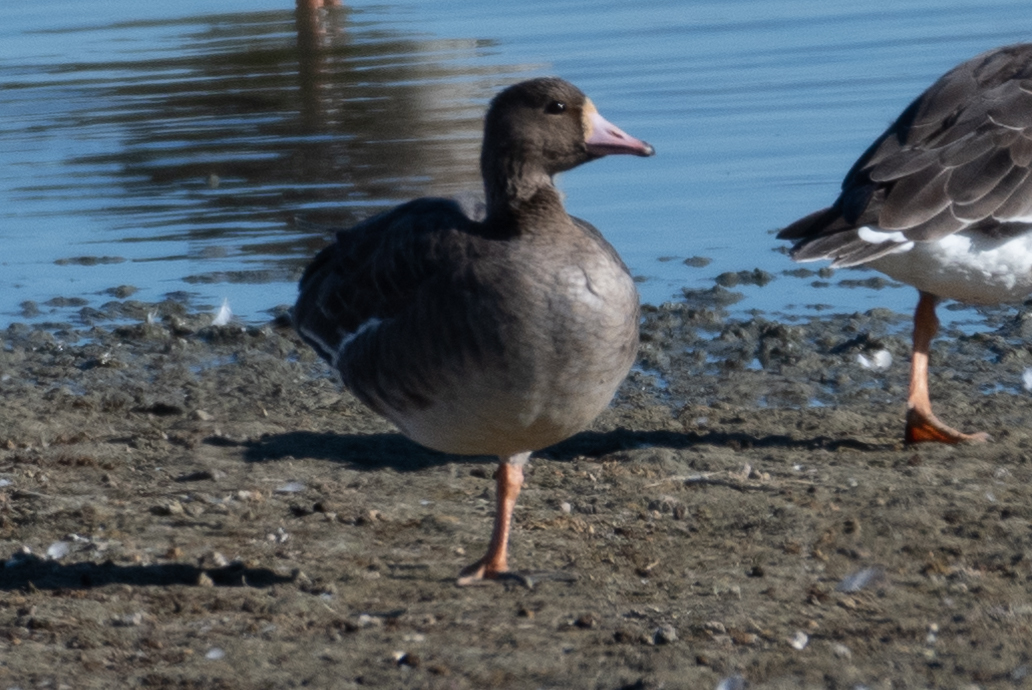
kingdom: Animalia
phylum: Chordata
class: Aves
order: Anseriformes
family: Anatidae
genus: Anser
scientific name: Anser albifrons
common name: Greater white-fronted goose
